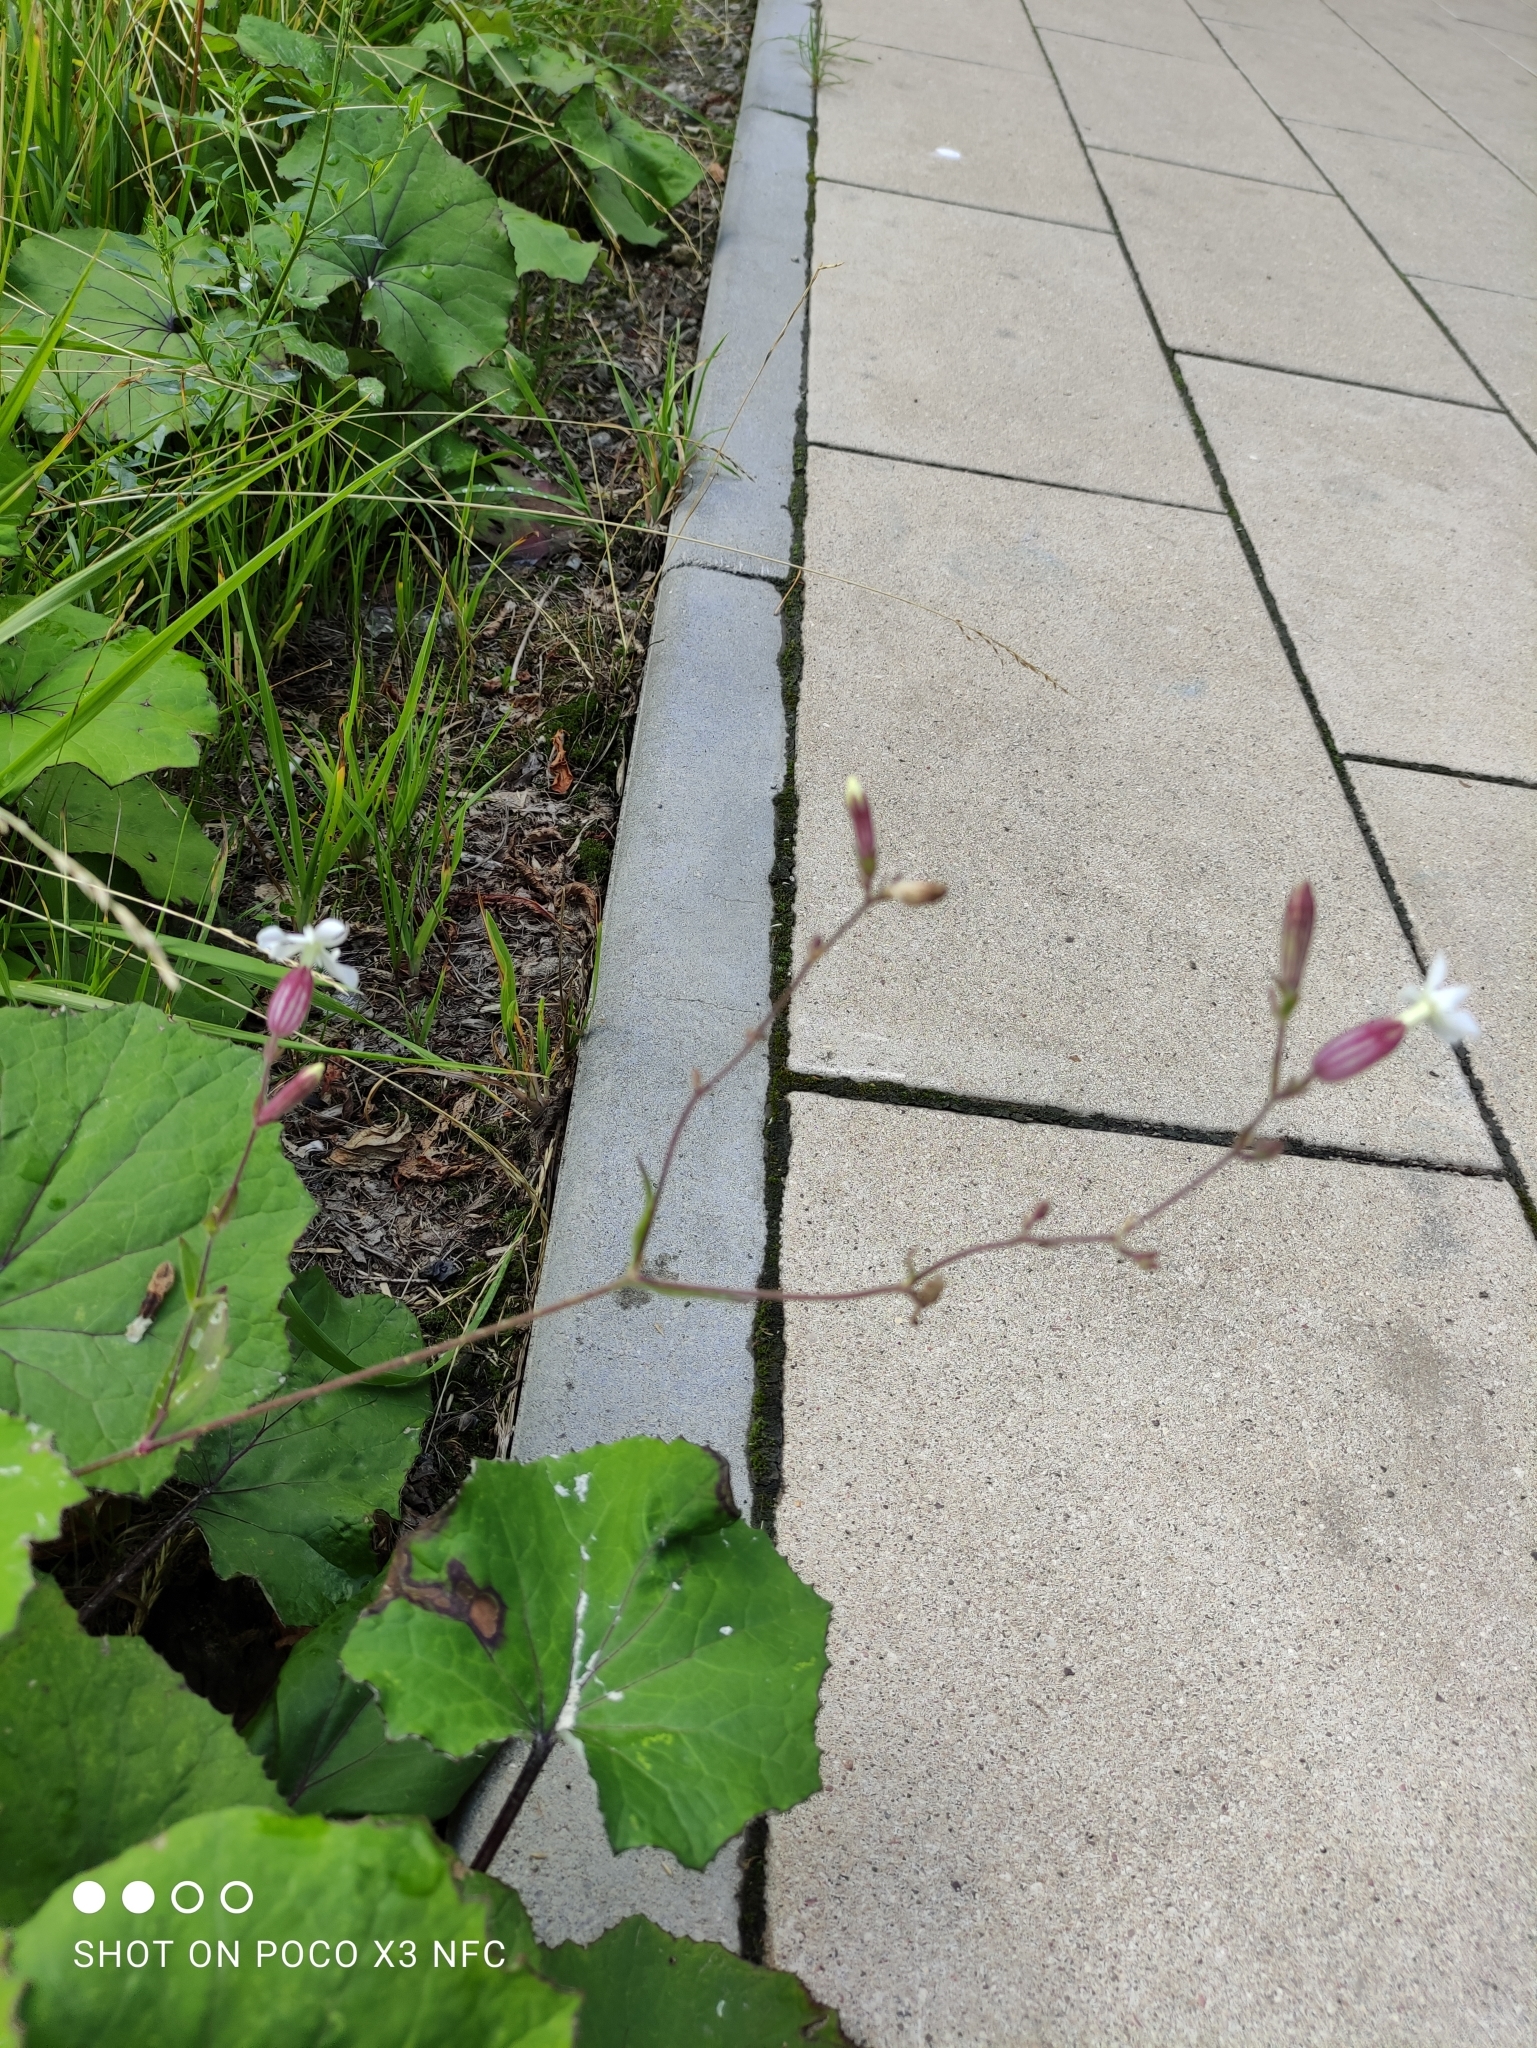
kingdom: Plantae
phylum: Tracheophyta
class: Magnoliopsida
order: Caryophyllales
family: Caryophyllaceae
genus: Silene
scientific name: Silene latifolia
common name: White campion
